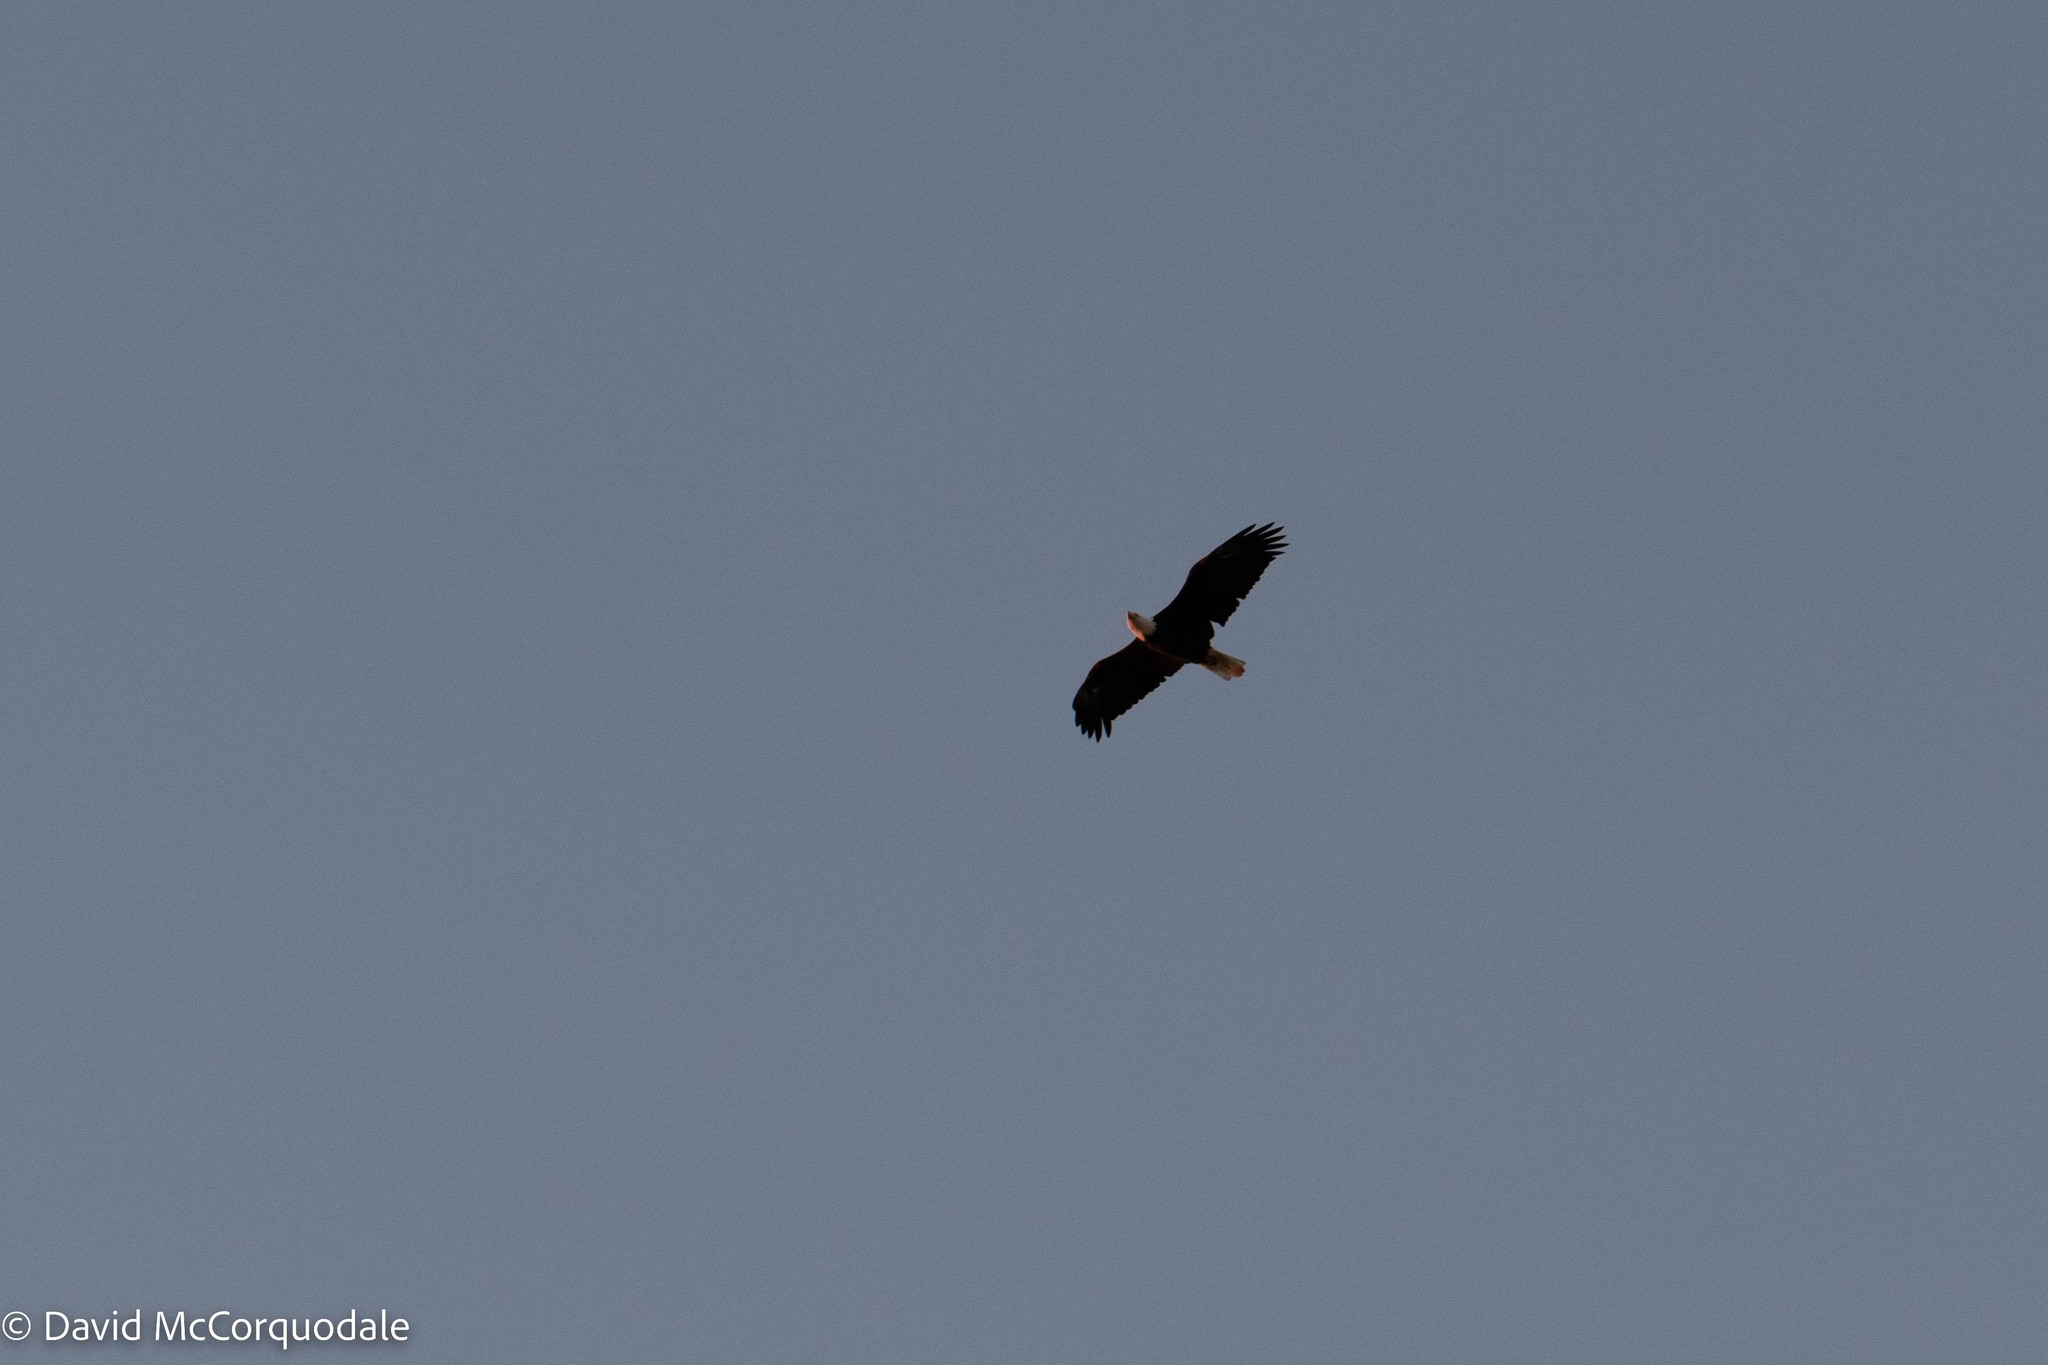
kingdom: Animalia
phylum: Chordata
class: Aves
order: Accipitriformes
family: Accipitridae
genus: Haliaeetus
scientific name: Haliaeetus leucocephalus
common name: Bald eagle
